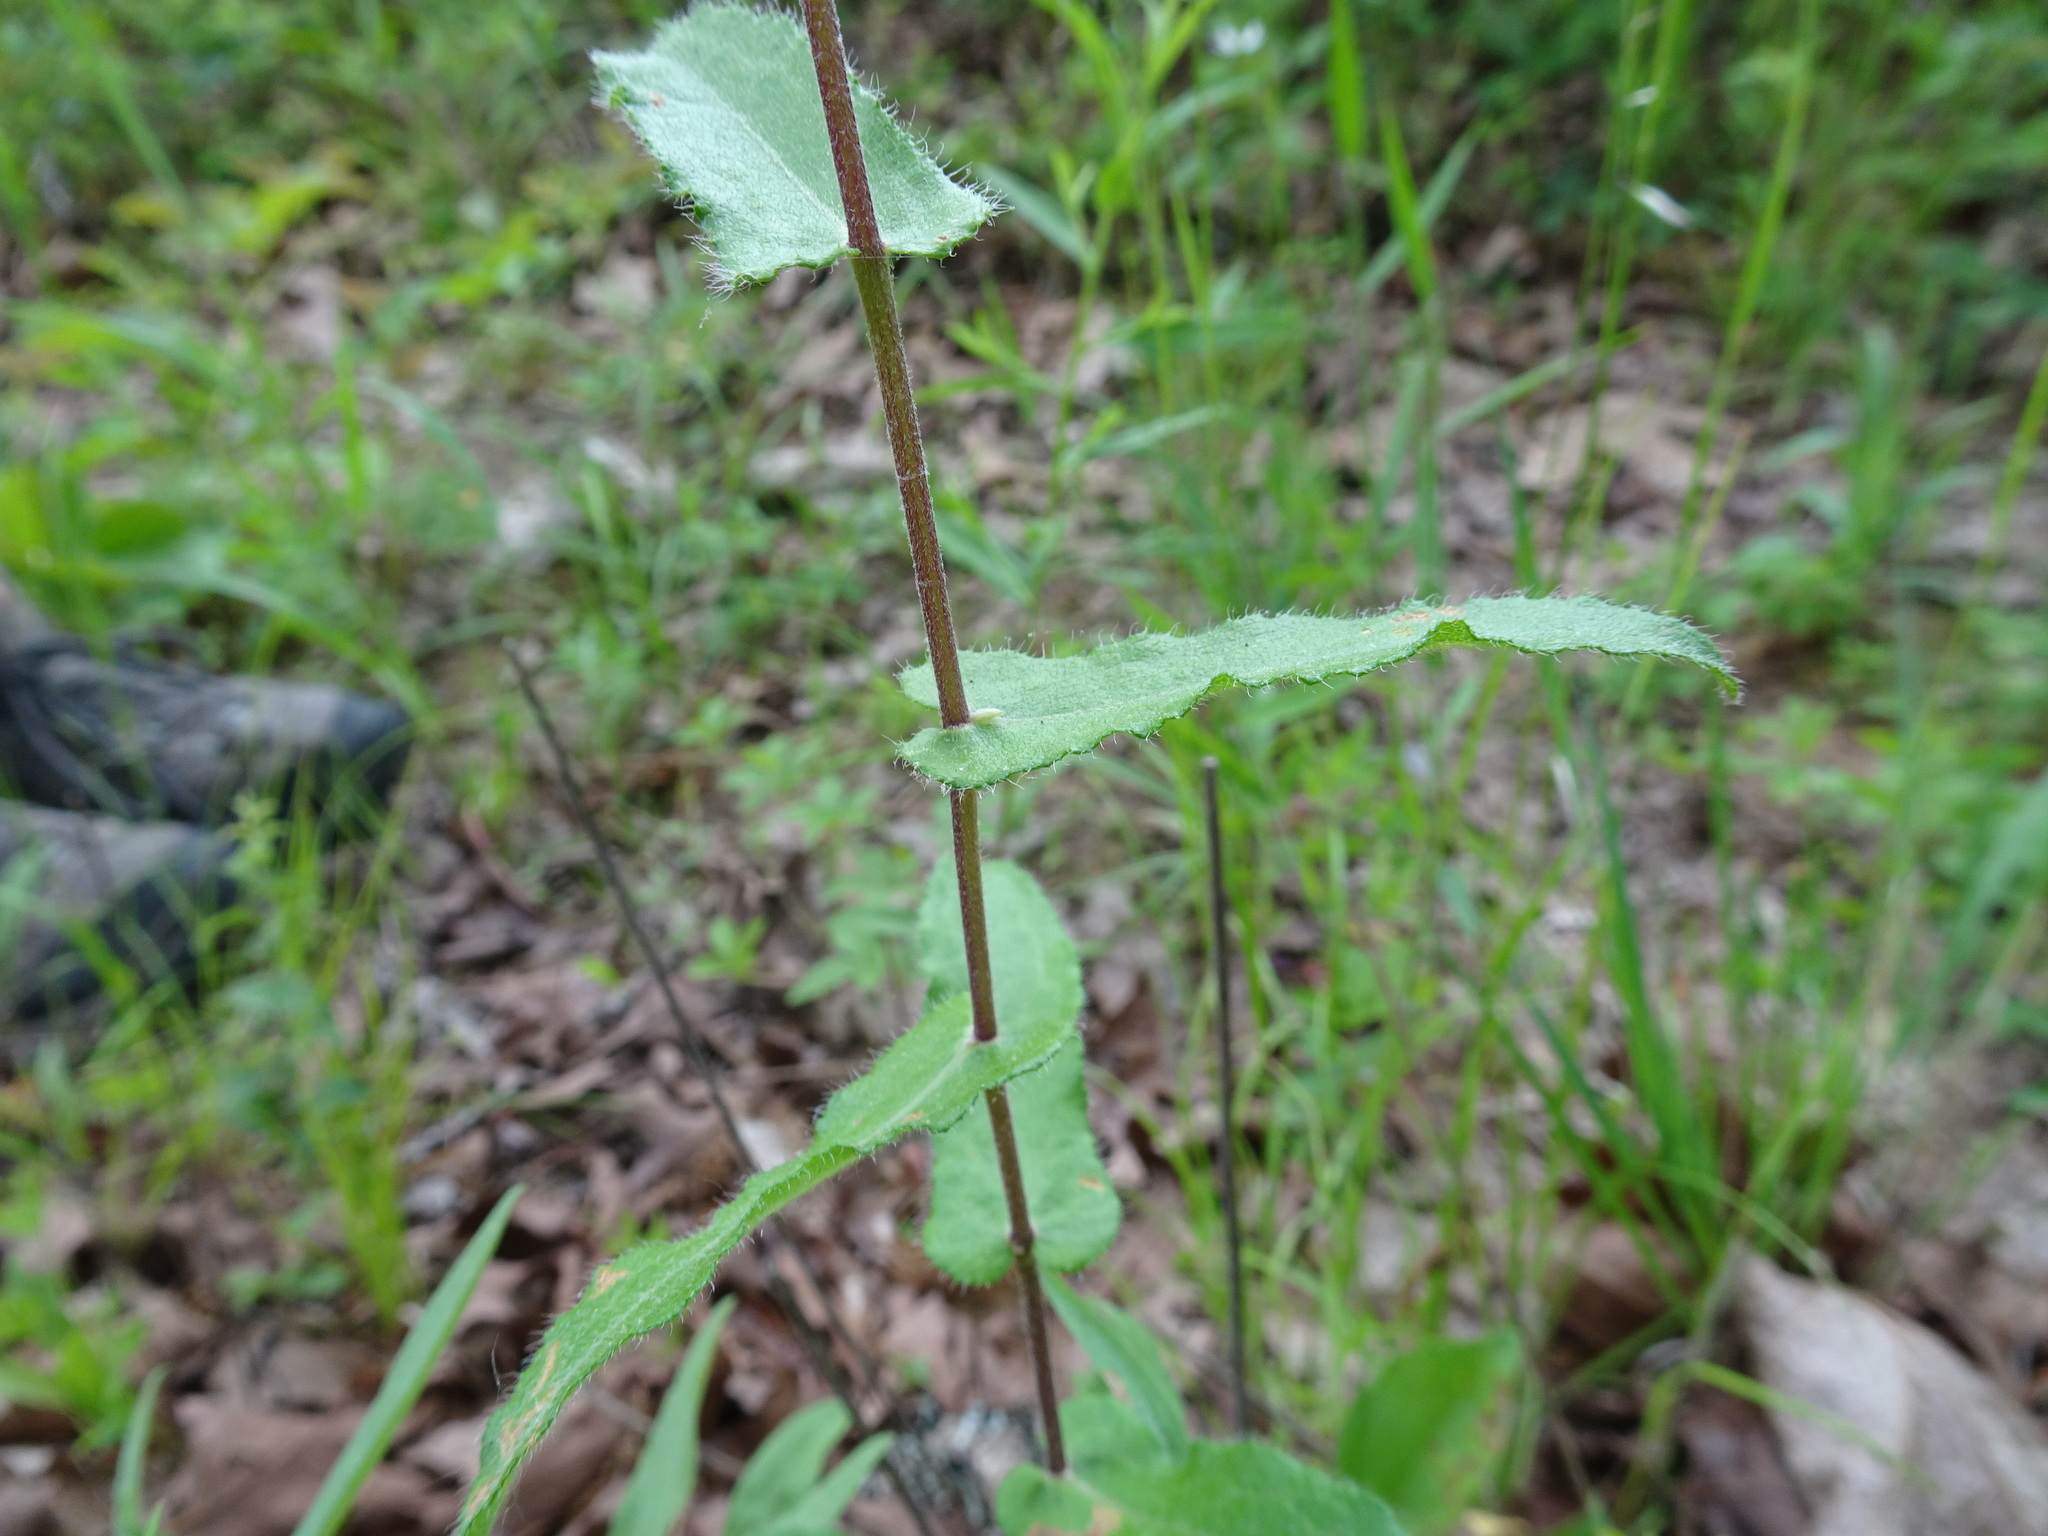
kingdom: Plantae
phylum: Tracheophyta
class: Magnoliopsida
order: Asterales
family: Asteraceae
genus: Symphyotrichum
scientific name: Symphyotrichum patens
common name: Late purple aster
